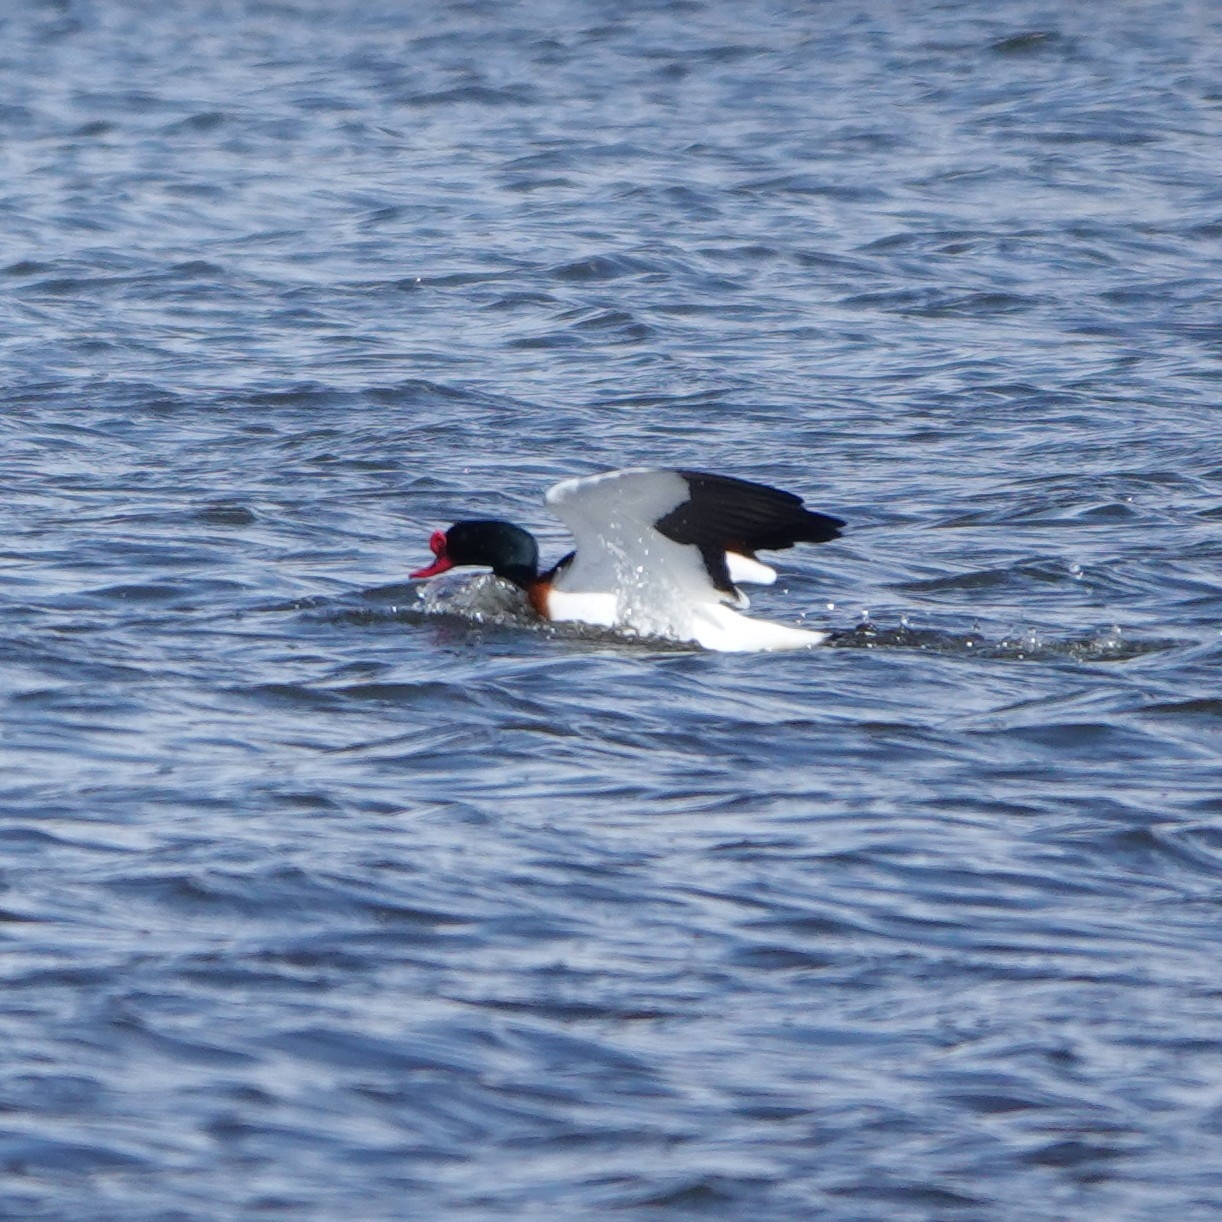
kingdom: Animalia
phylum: Chordata
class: Aves
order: Anseriformes
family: Anatidae
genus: Tadorna
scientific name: Tadorna tadorna
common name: Common shelduck
